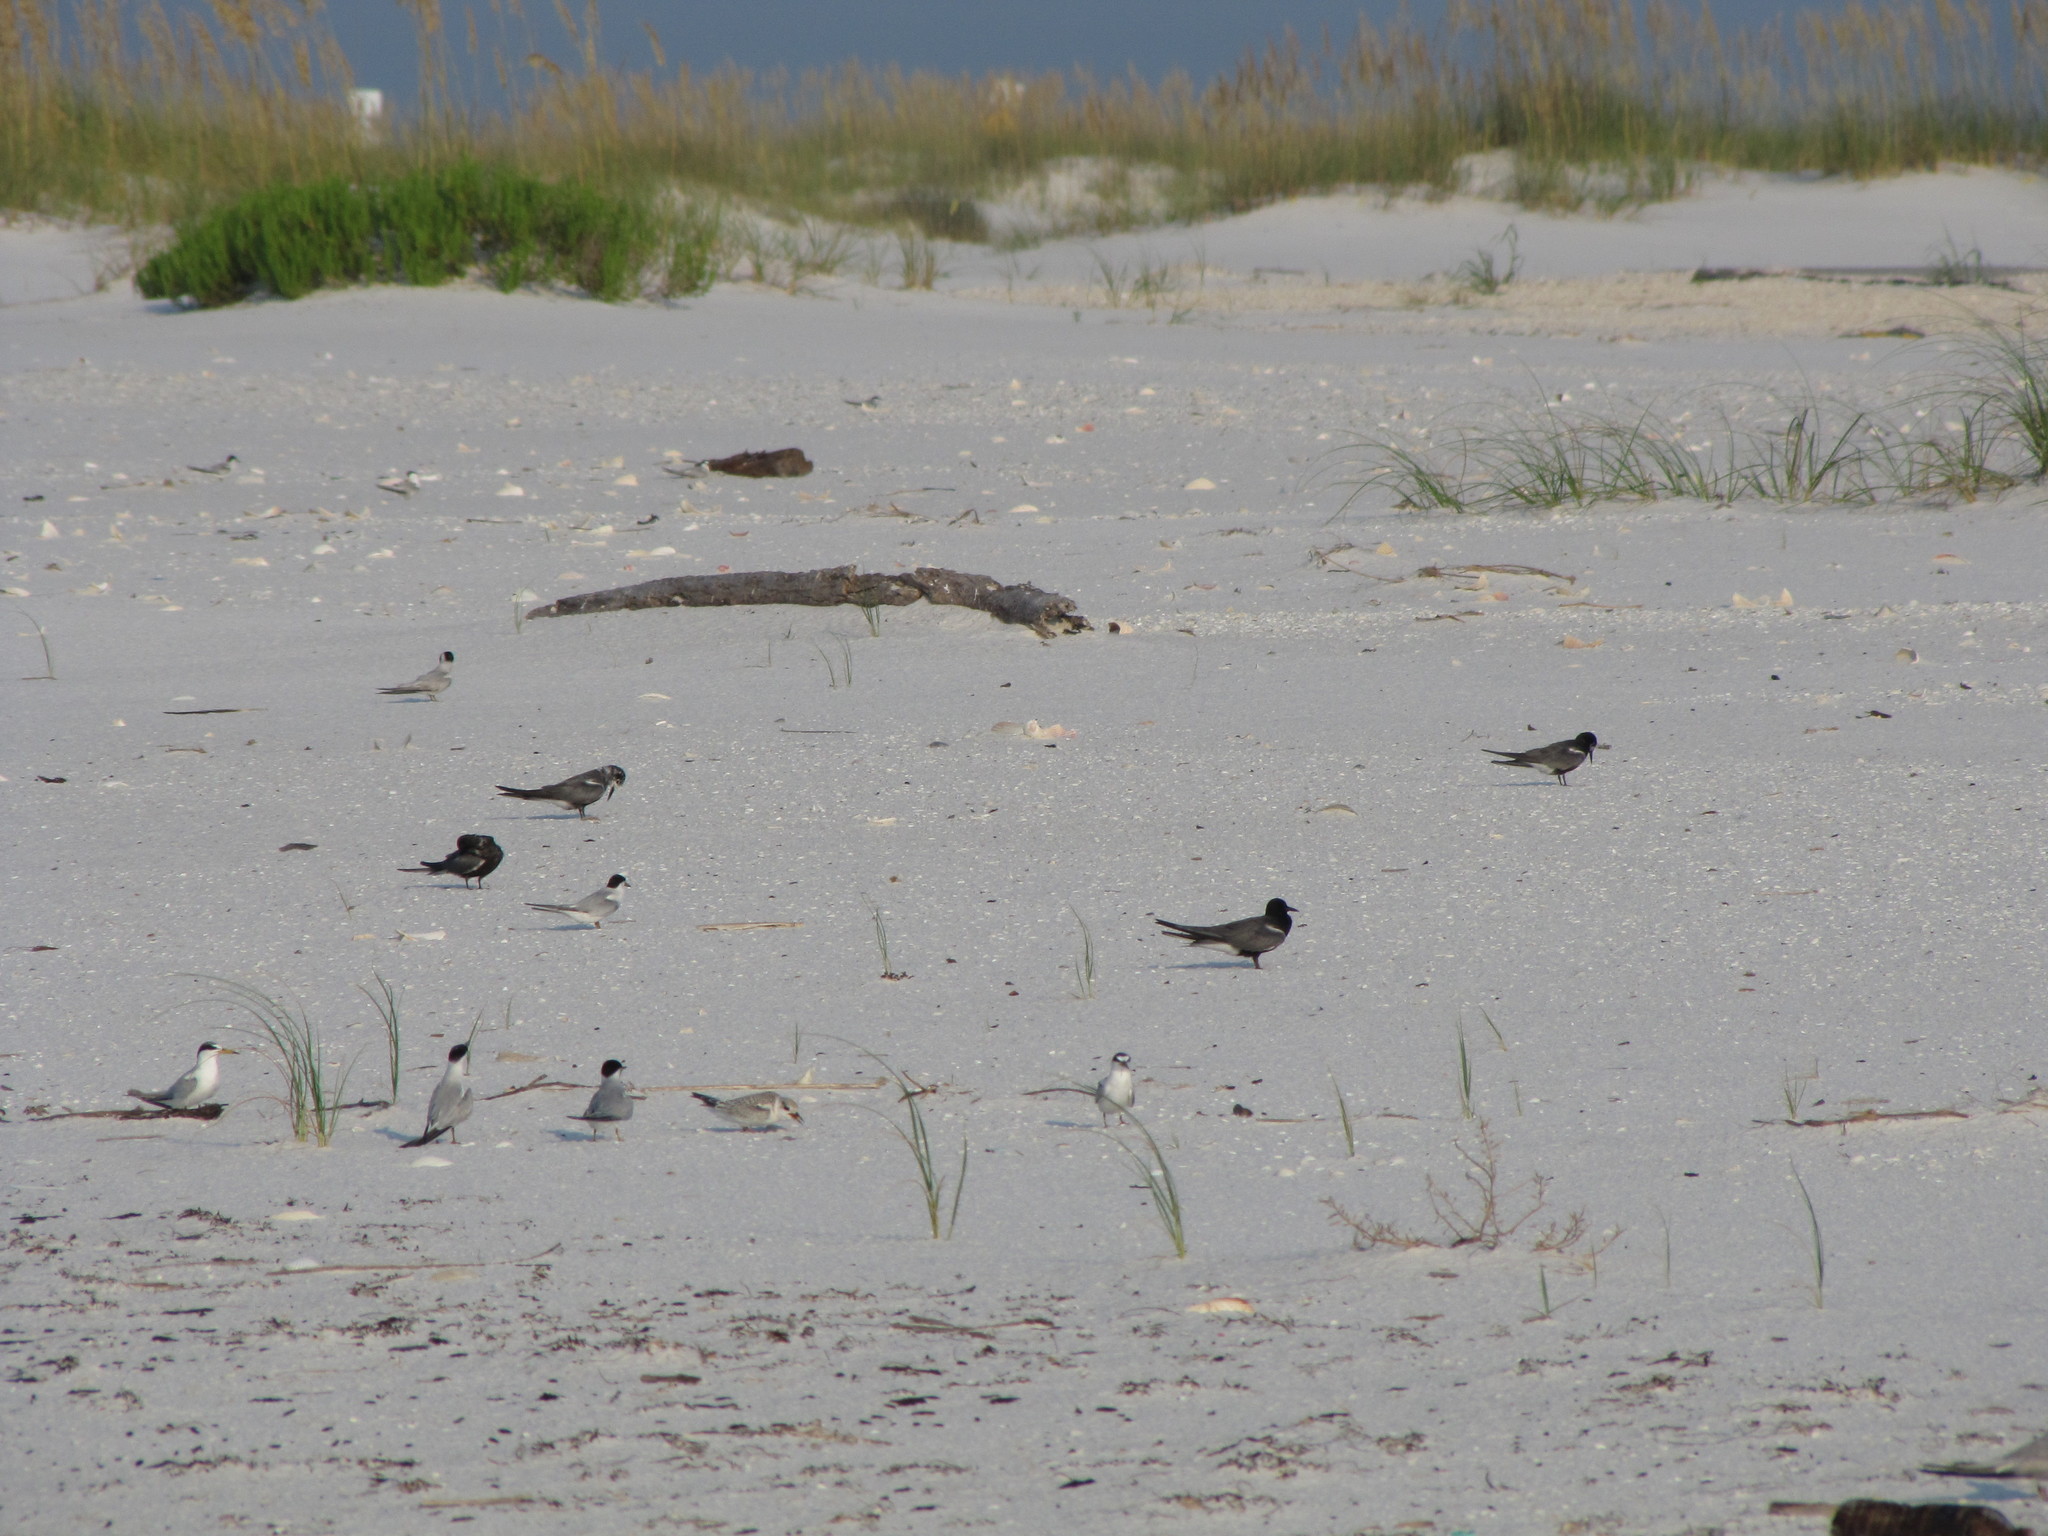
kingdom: Animalia
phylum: Chordata
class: Aves
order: Charadriiformes
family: Laridae
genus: Leucophaeus
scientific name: Leucophaeus atricilla
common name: Laughing gull
